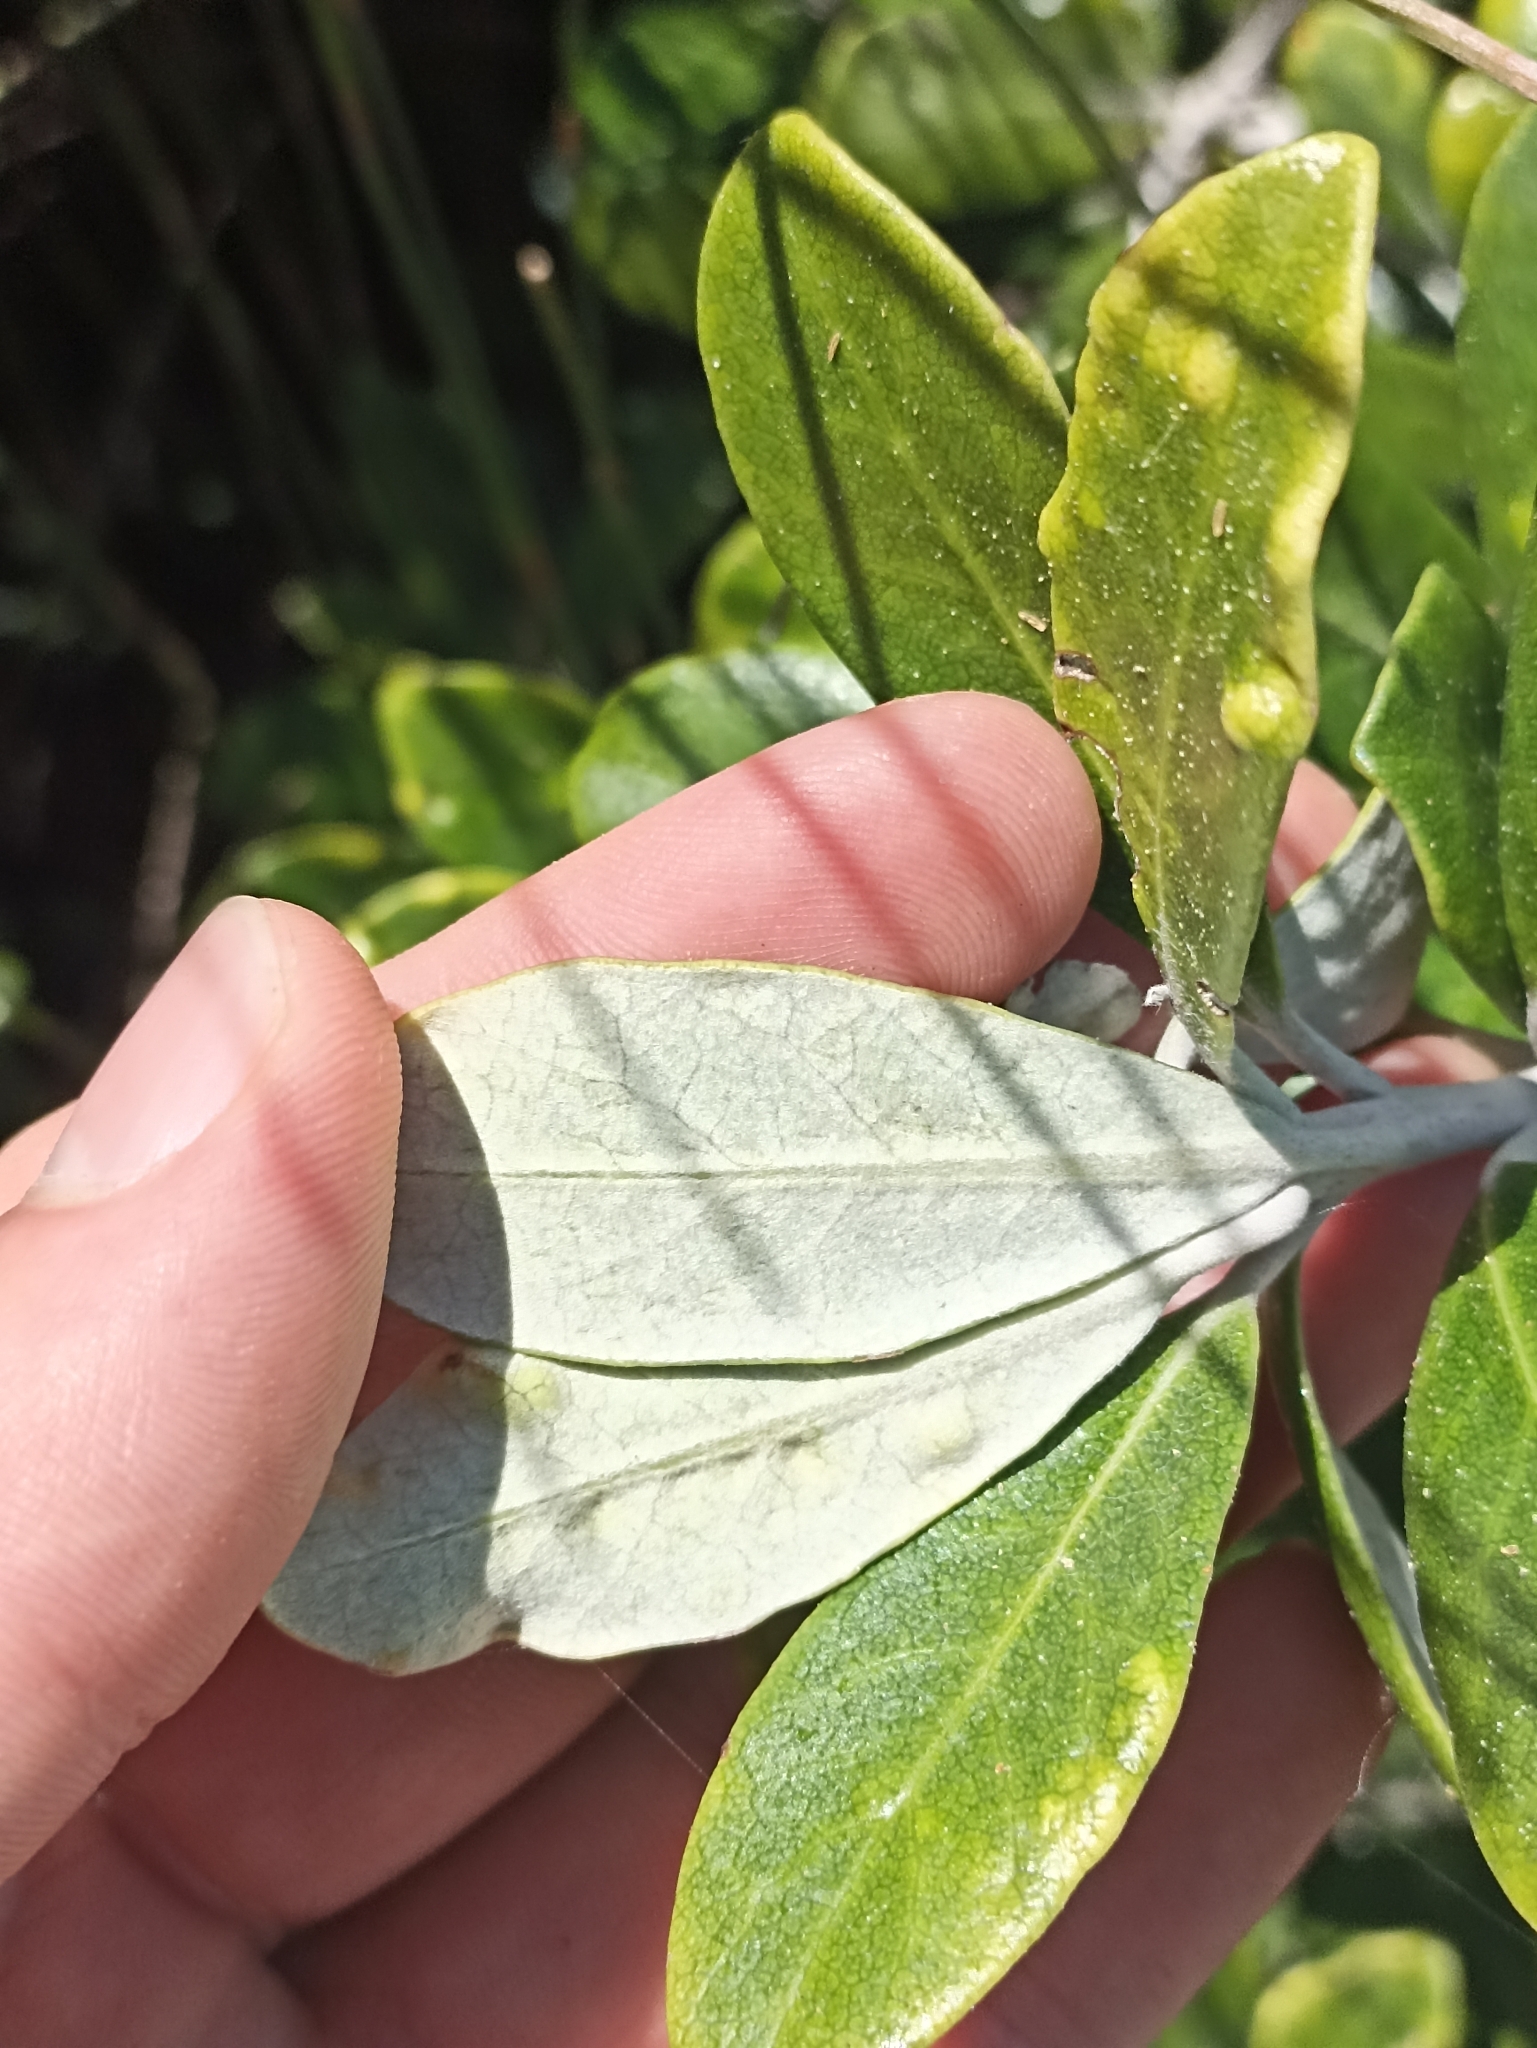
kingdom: Plantae
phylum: Tracheophyta
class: Magnoliopsida
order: Apiales
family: Pittosporaceae
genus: Pittosporum
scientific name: Pittosporum crassifolium
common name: Karo
